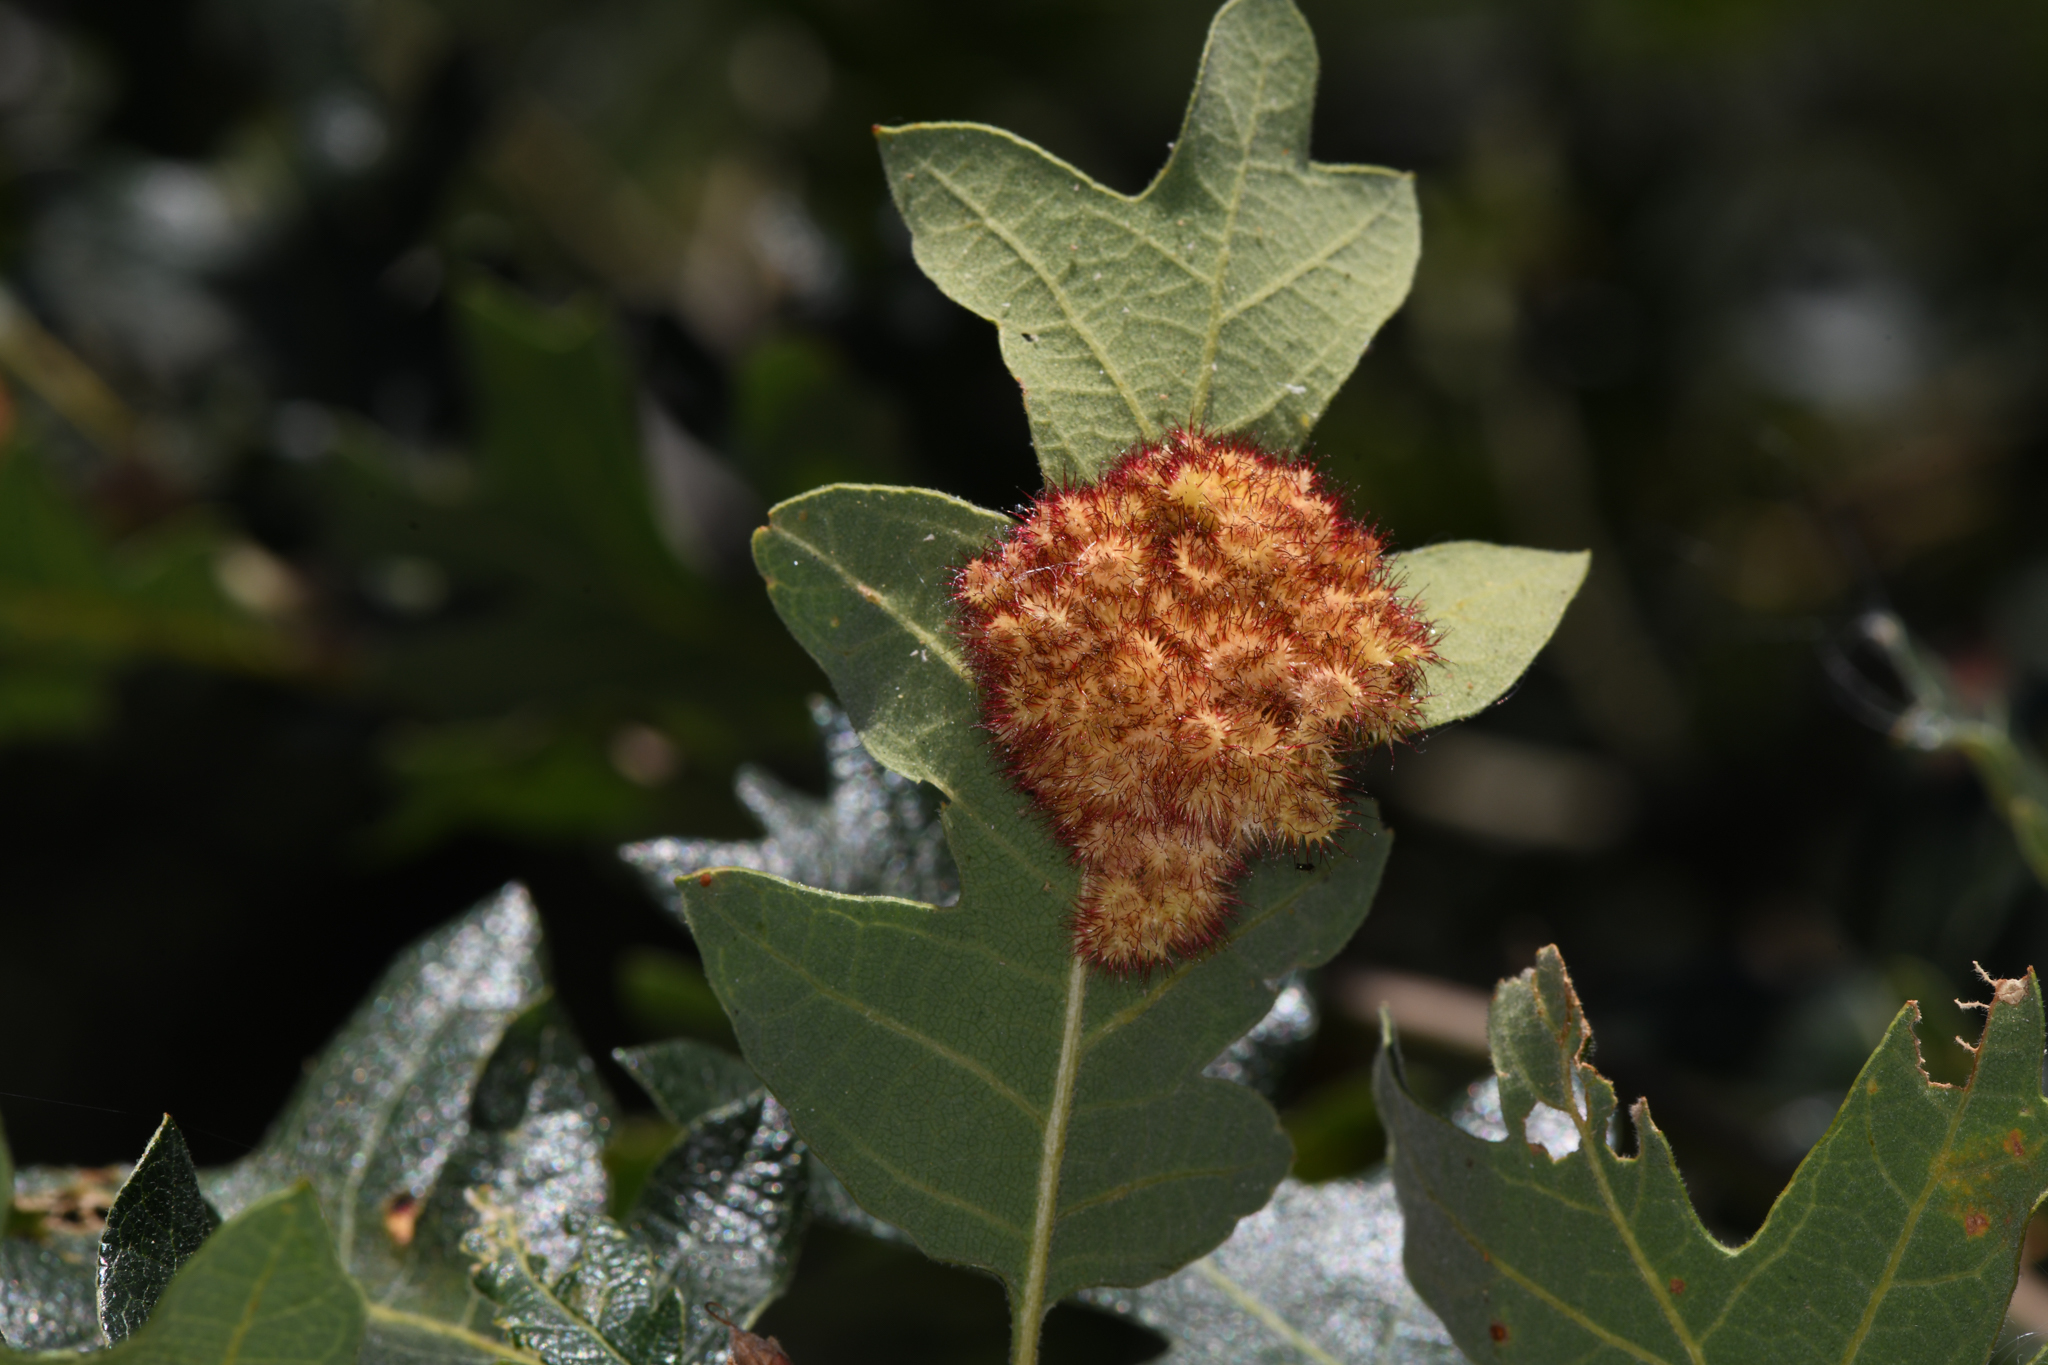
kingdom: Animalia
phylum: Arthropoda
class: Insecta
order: Hymenoptera
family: Cynipidae
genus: Andricus
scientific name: Andricus
